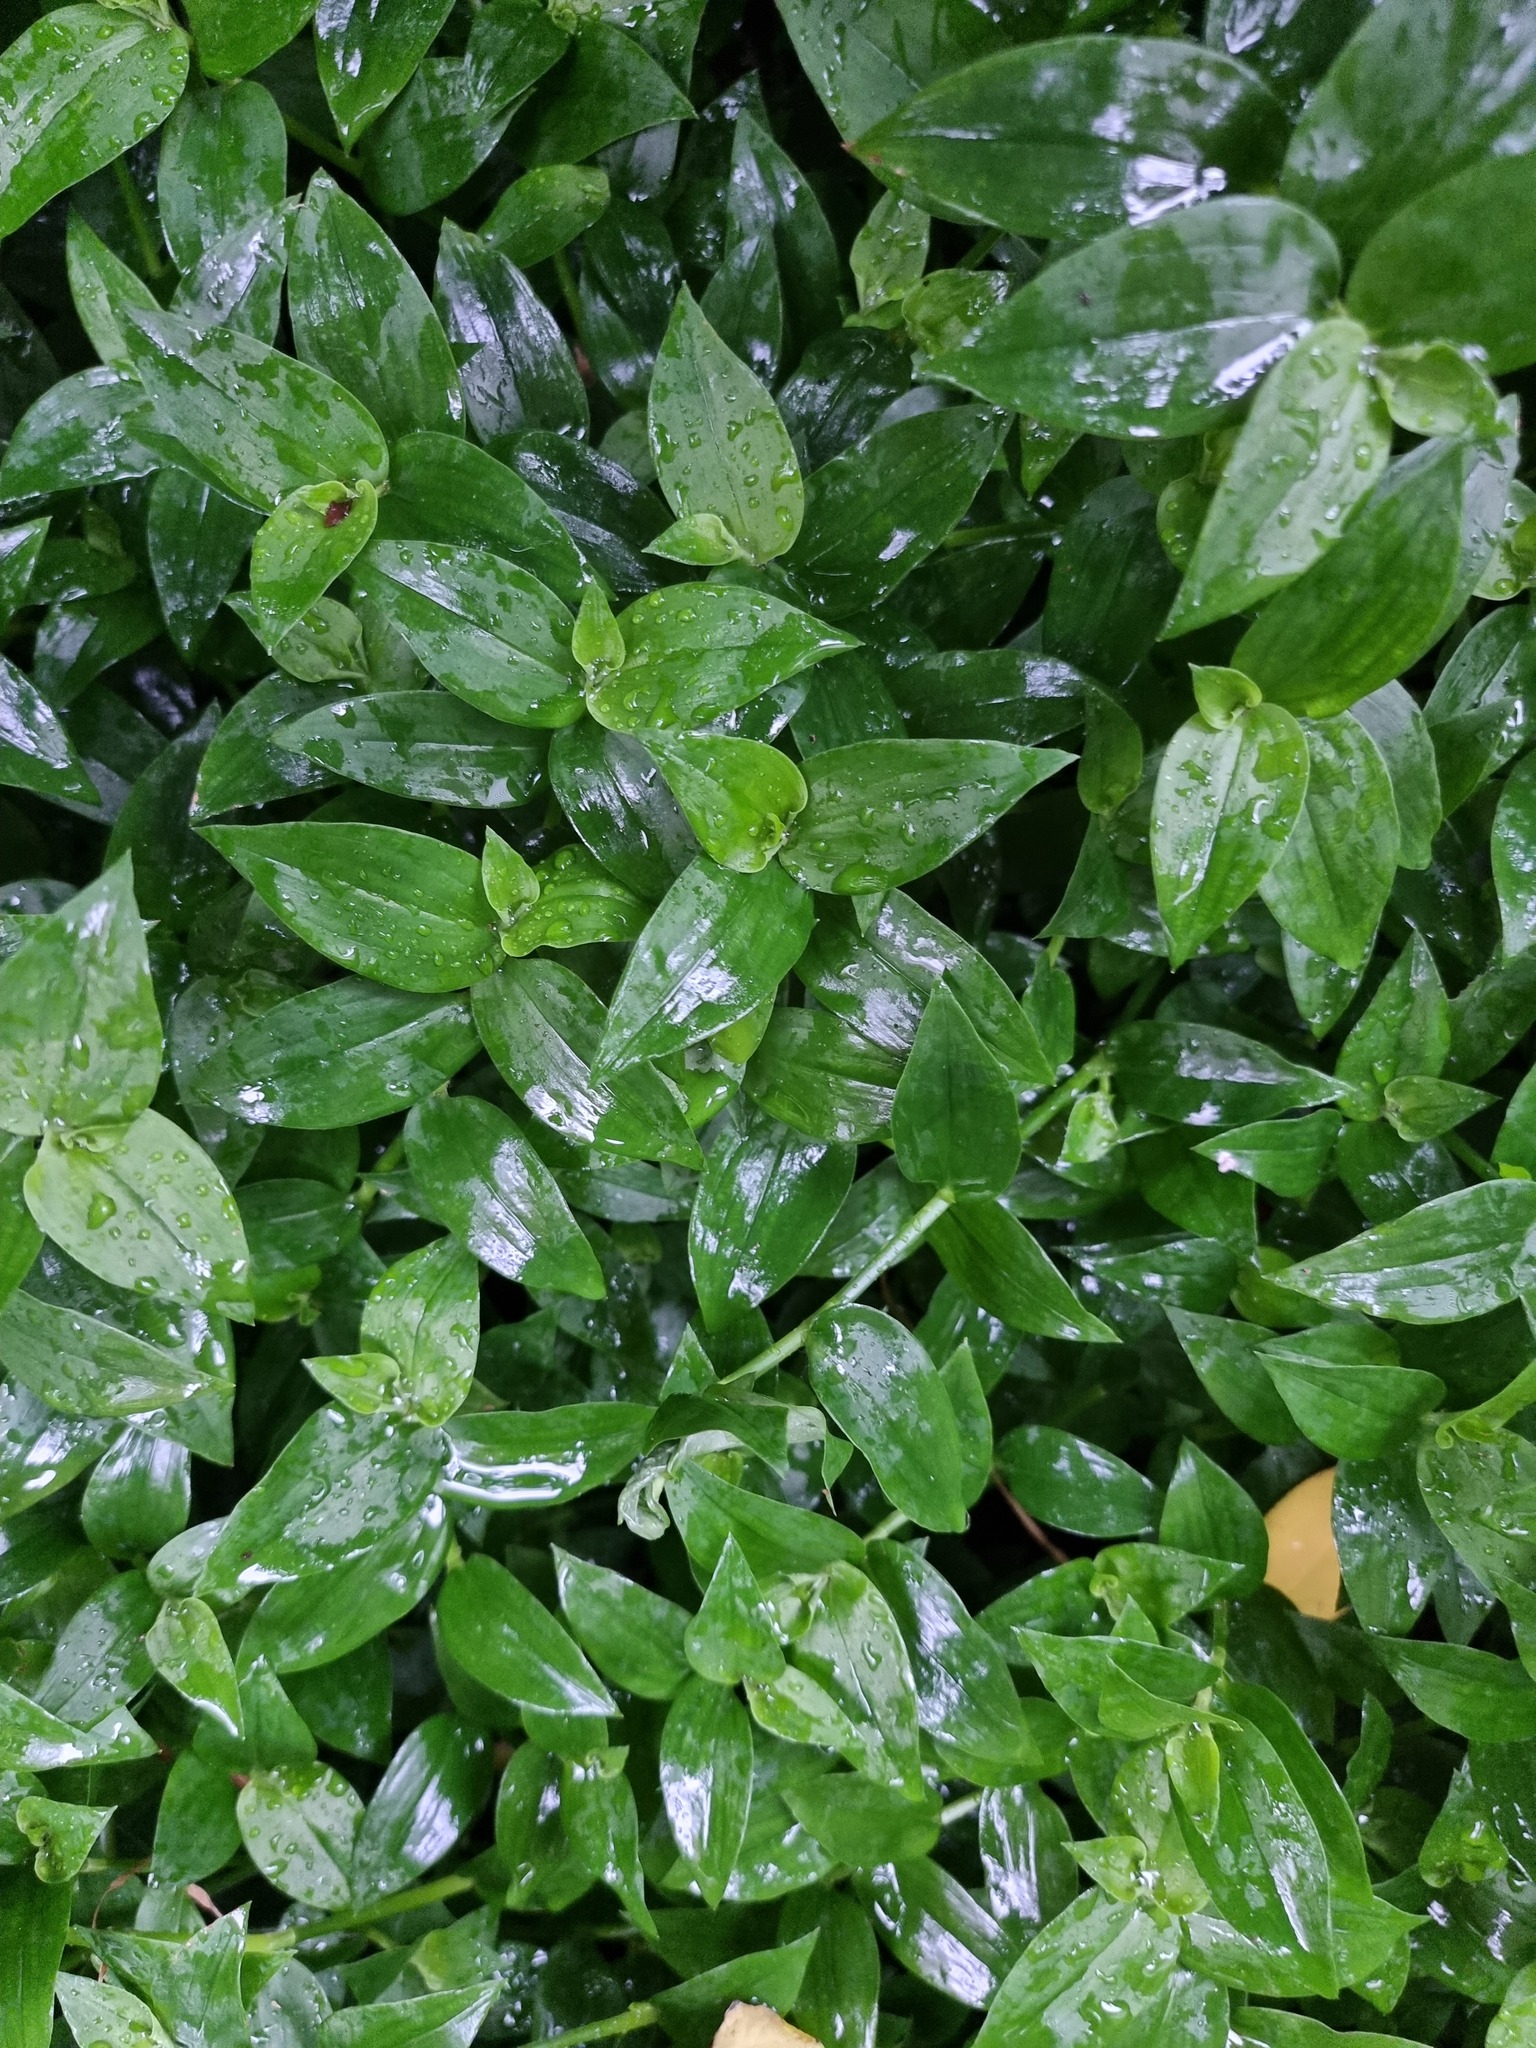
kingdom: Plantae
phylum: Tracheophyta
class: Liliopsida
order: Commelinales
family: Commelinaceae
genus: Tradescantia
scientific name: Tradescantia fluminensis
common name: Wandering-jew
